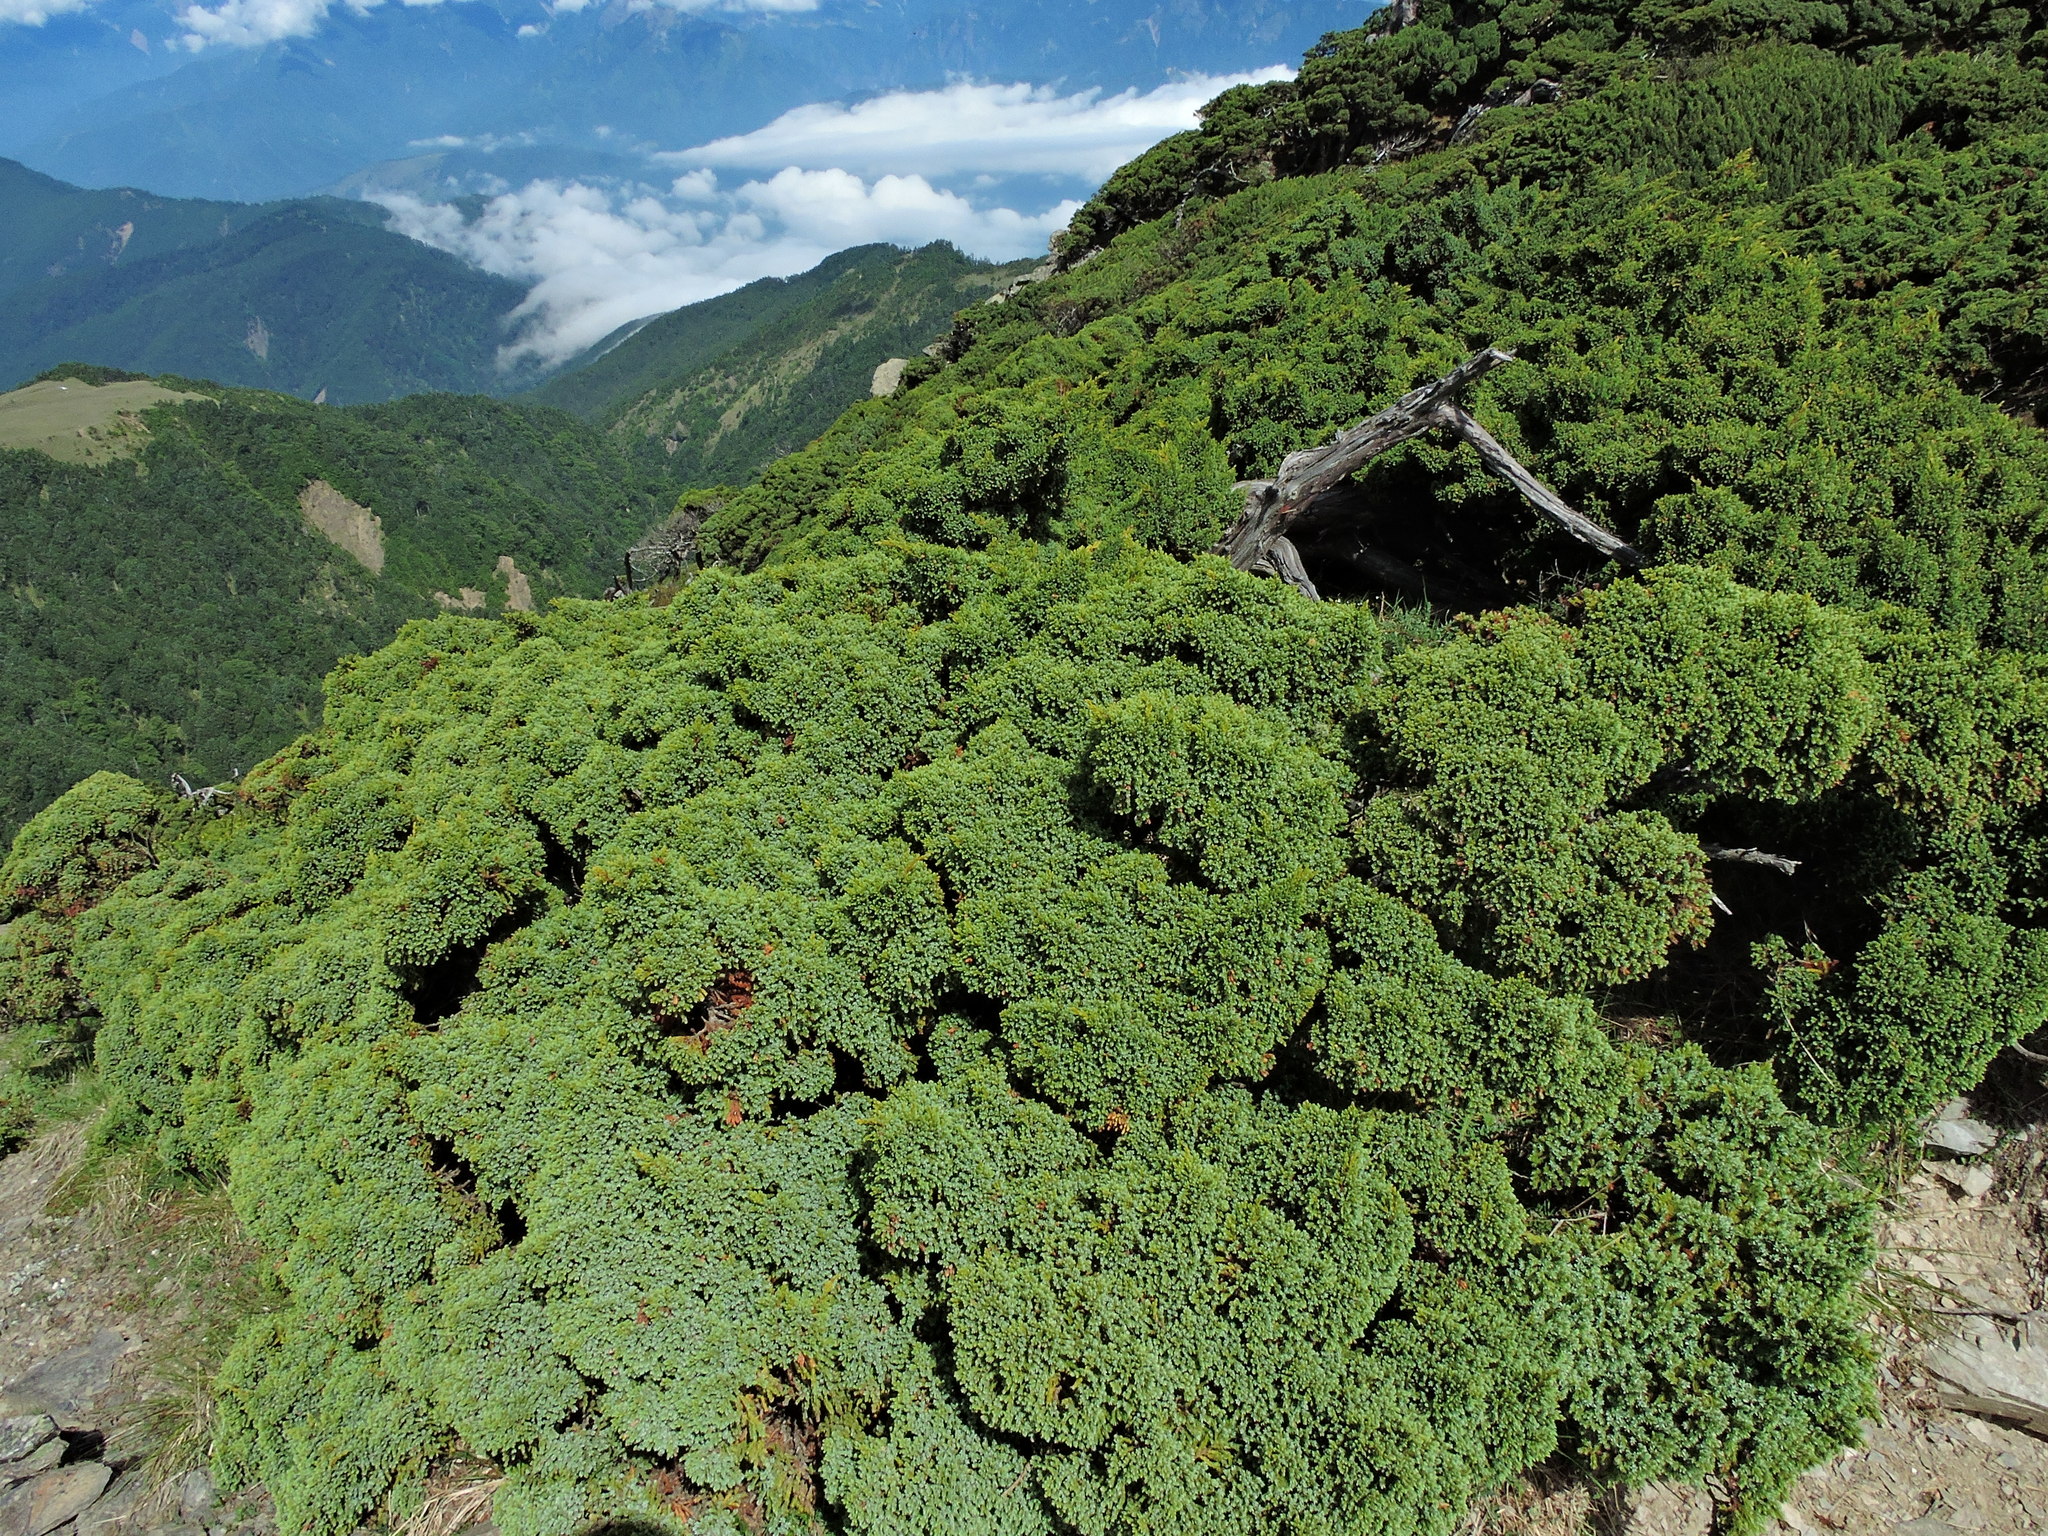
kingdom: Plantae
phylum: Tracheophyta
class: Pinopsida
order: Pinales
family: Cupressaceae
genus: Juniperus
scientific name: Juniperus squamata
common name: Flaky juniper
